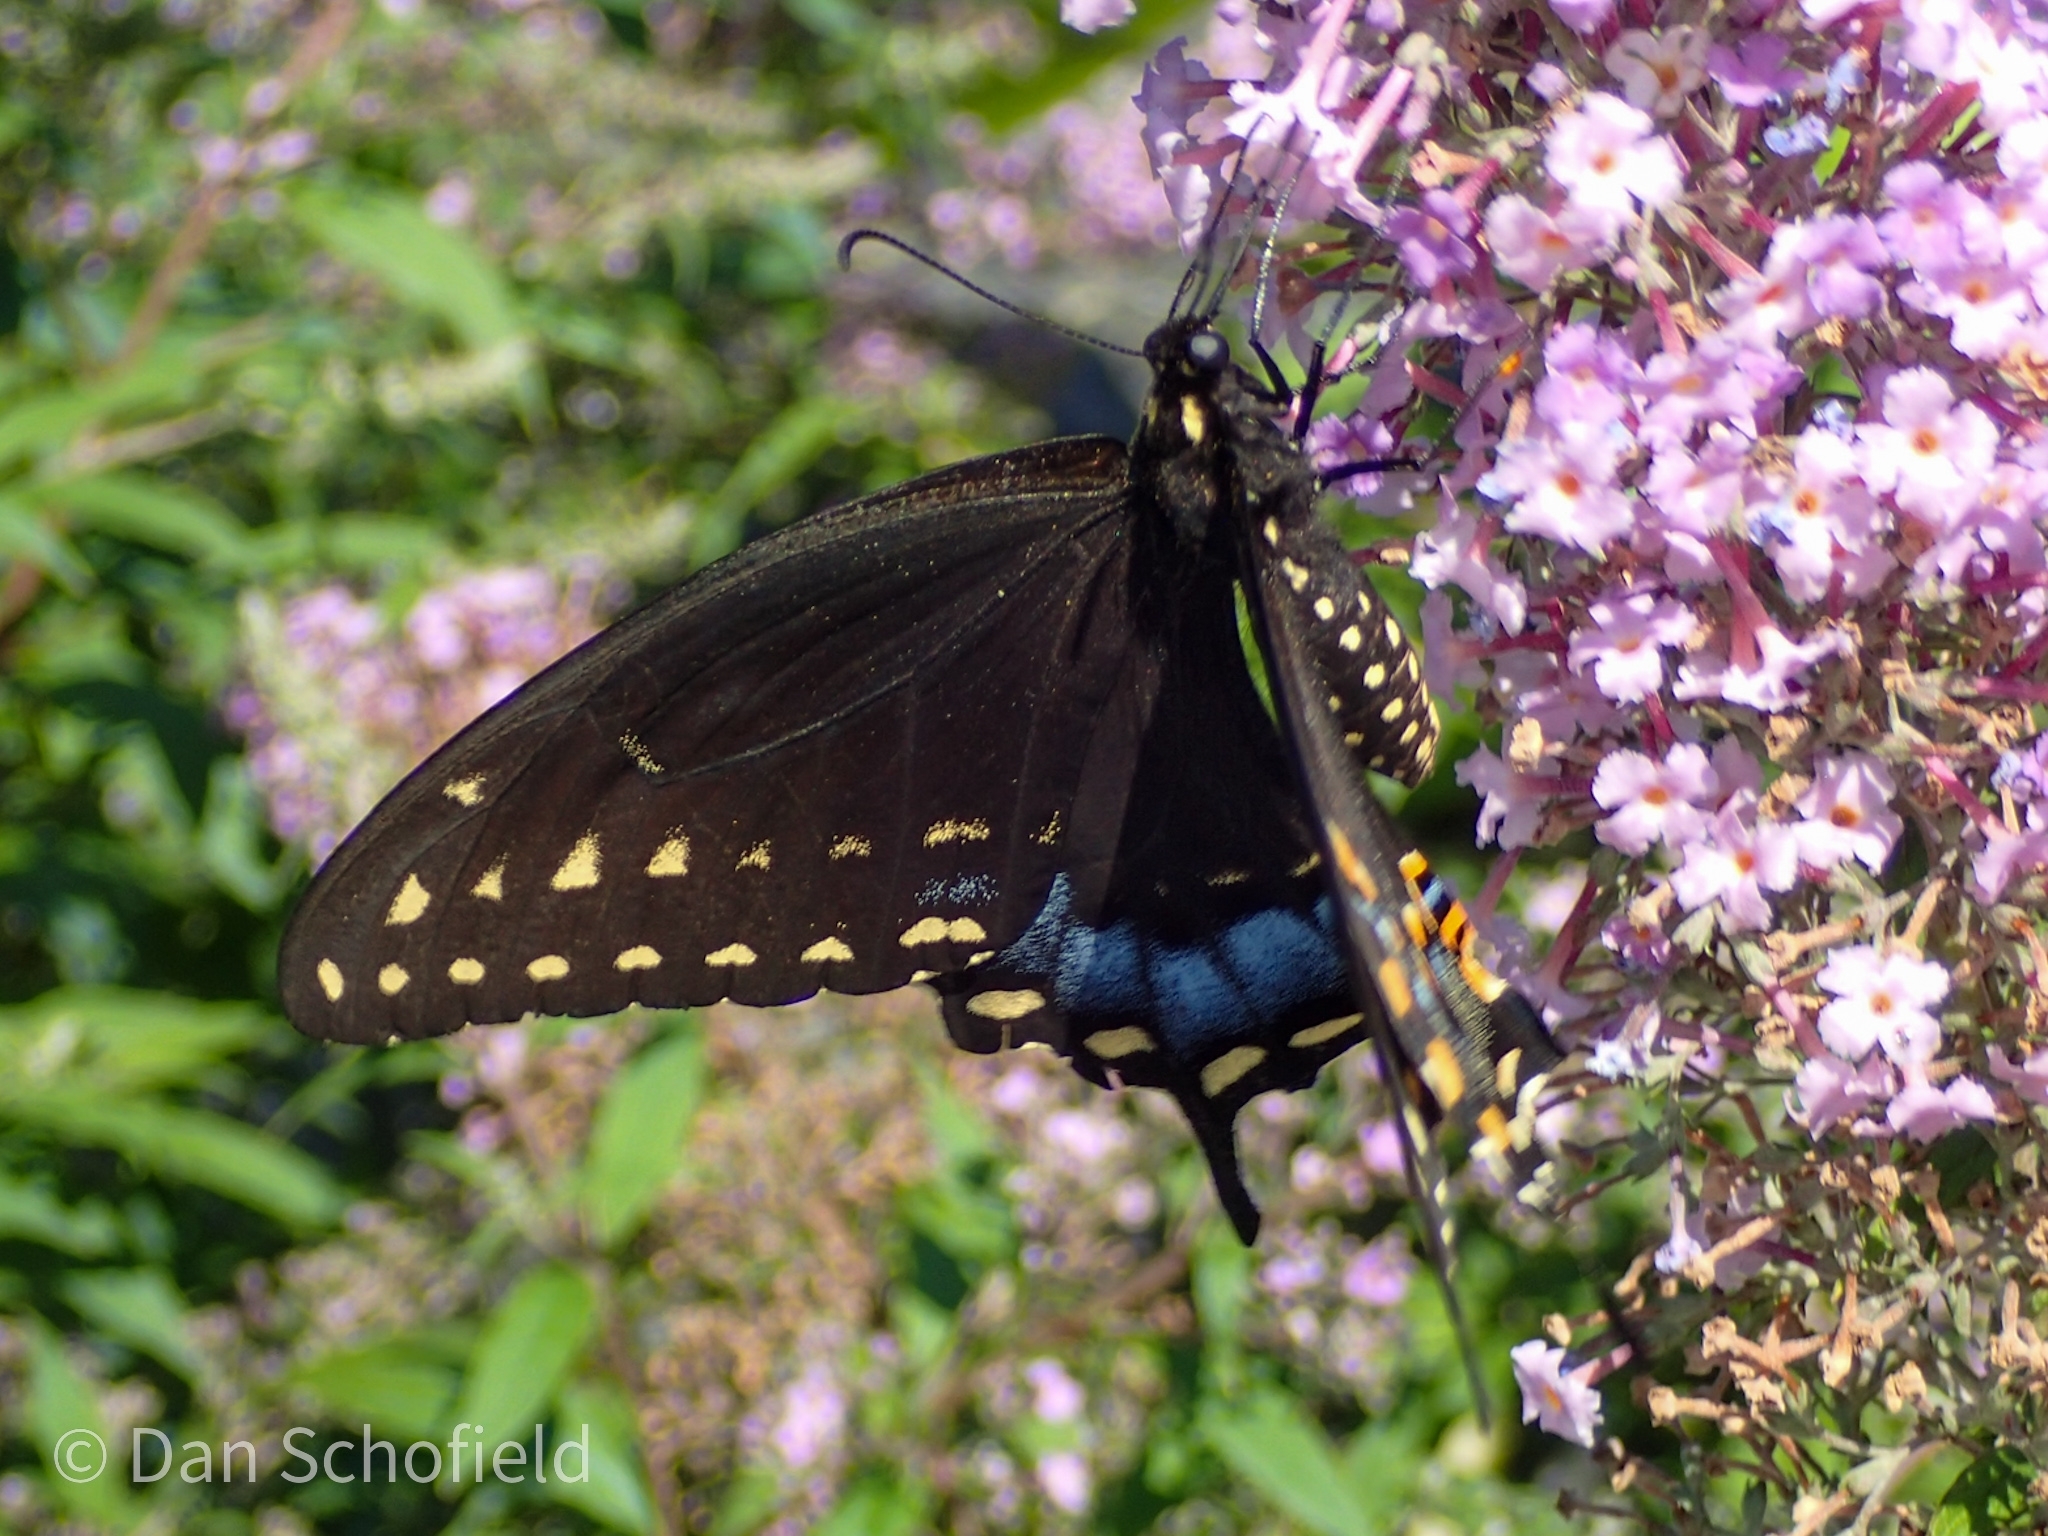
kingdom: Animalia
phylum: Arthropoda
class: Insecta
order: Lepidoptera
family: Papilionidae
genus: Papilio
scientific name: Papilio polyxenes
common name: Black swallowtail
